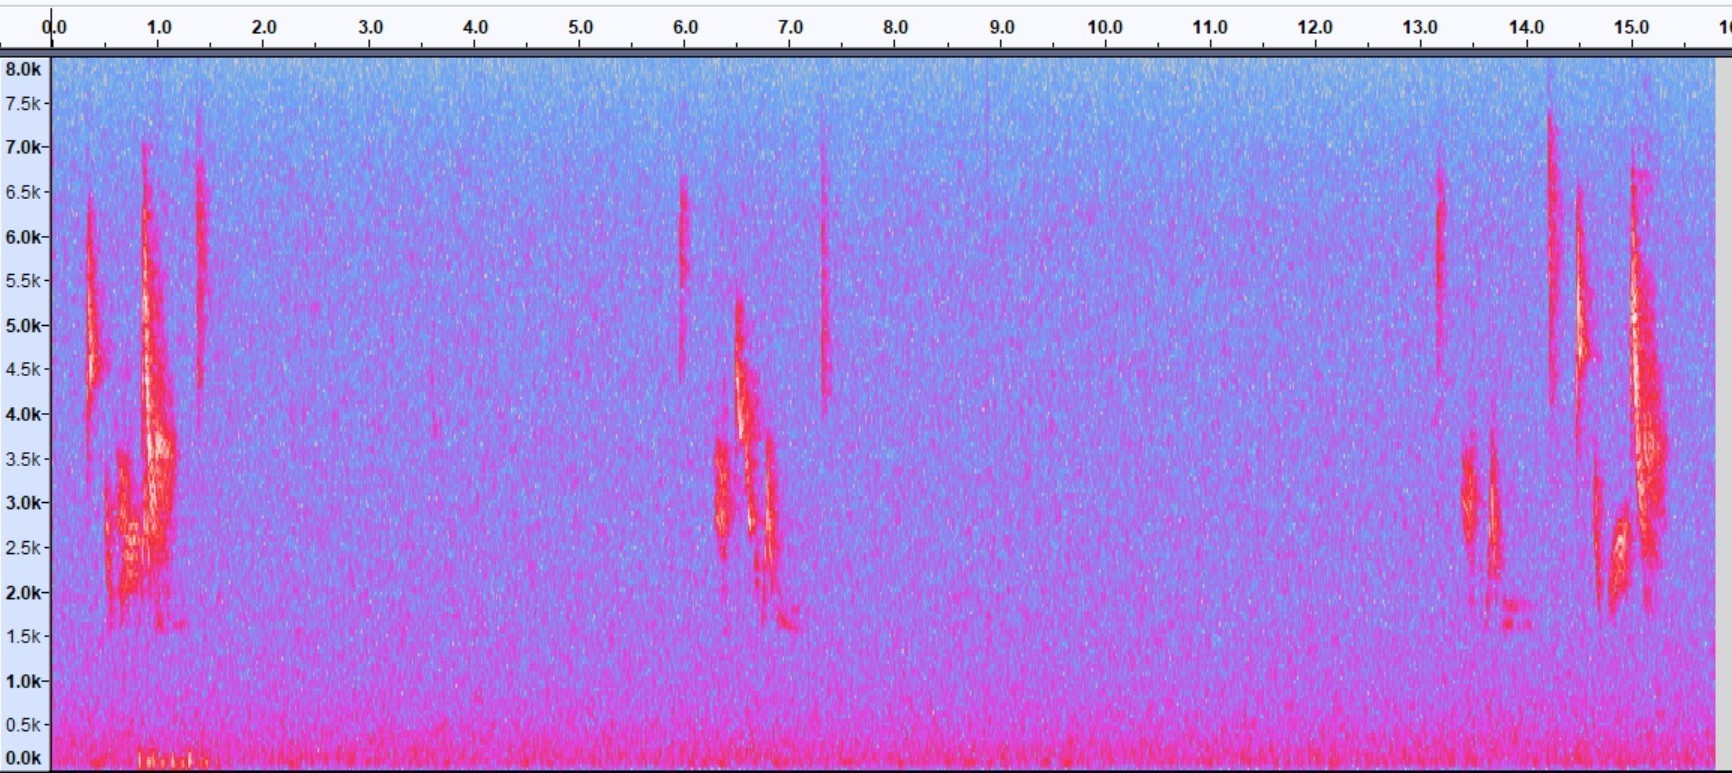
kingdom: Animalia
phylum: Chordata
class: Aves
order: Passeriformes
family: Vireonidae
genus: Vireo
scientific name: Vireo crassirostris
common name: Thick-billed vireo
